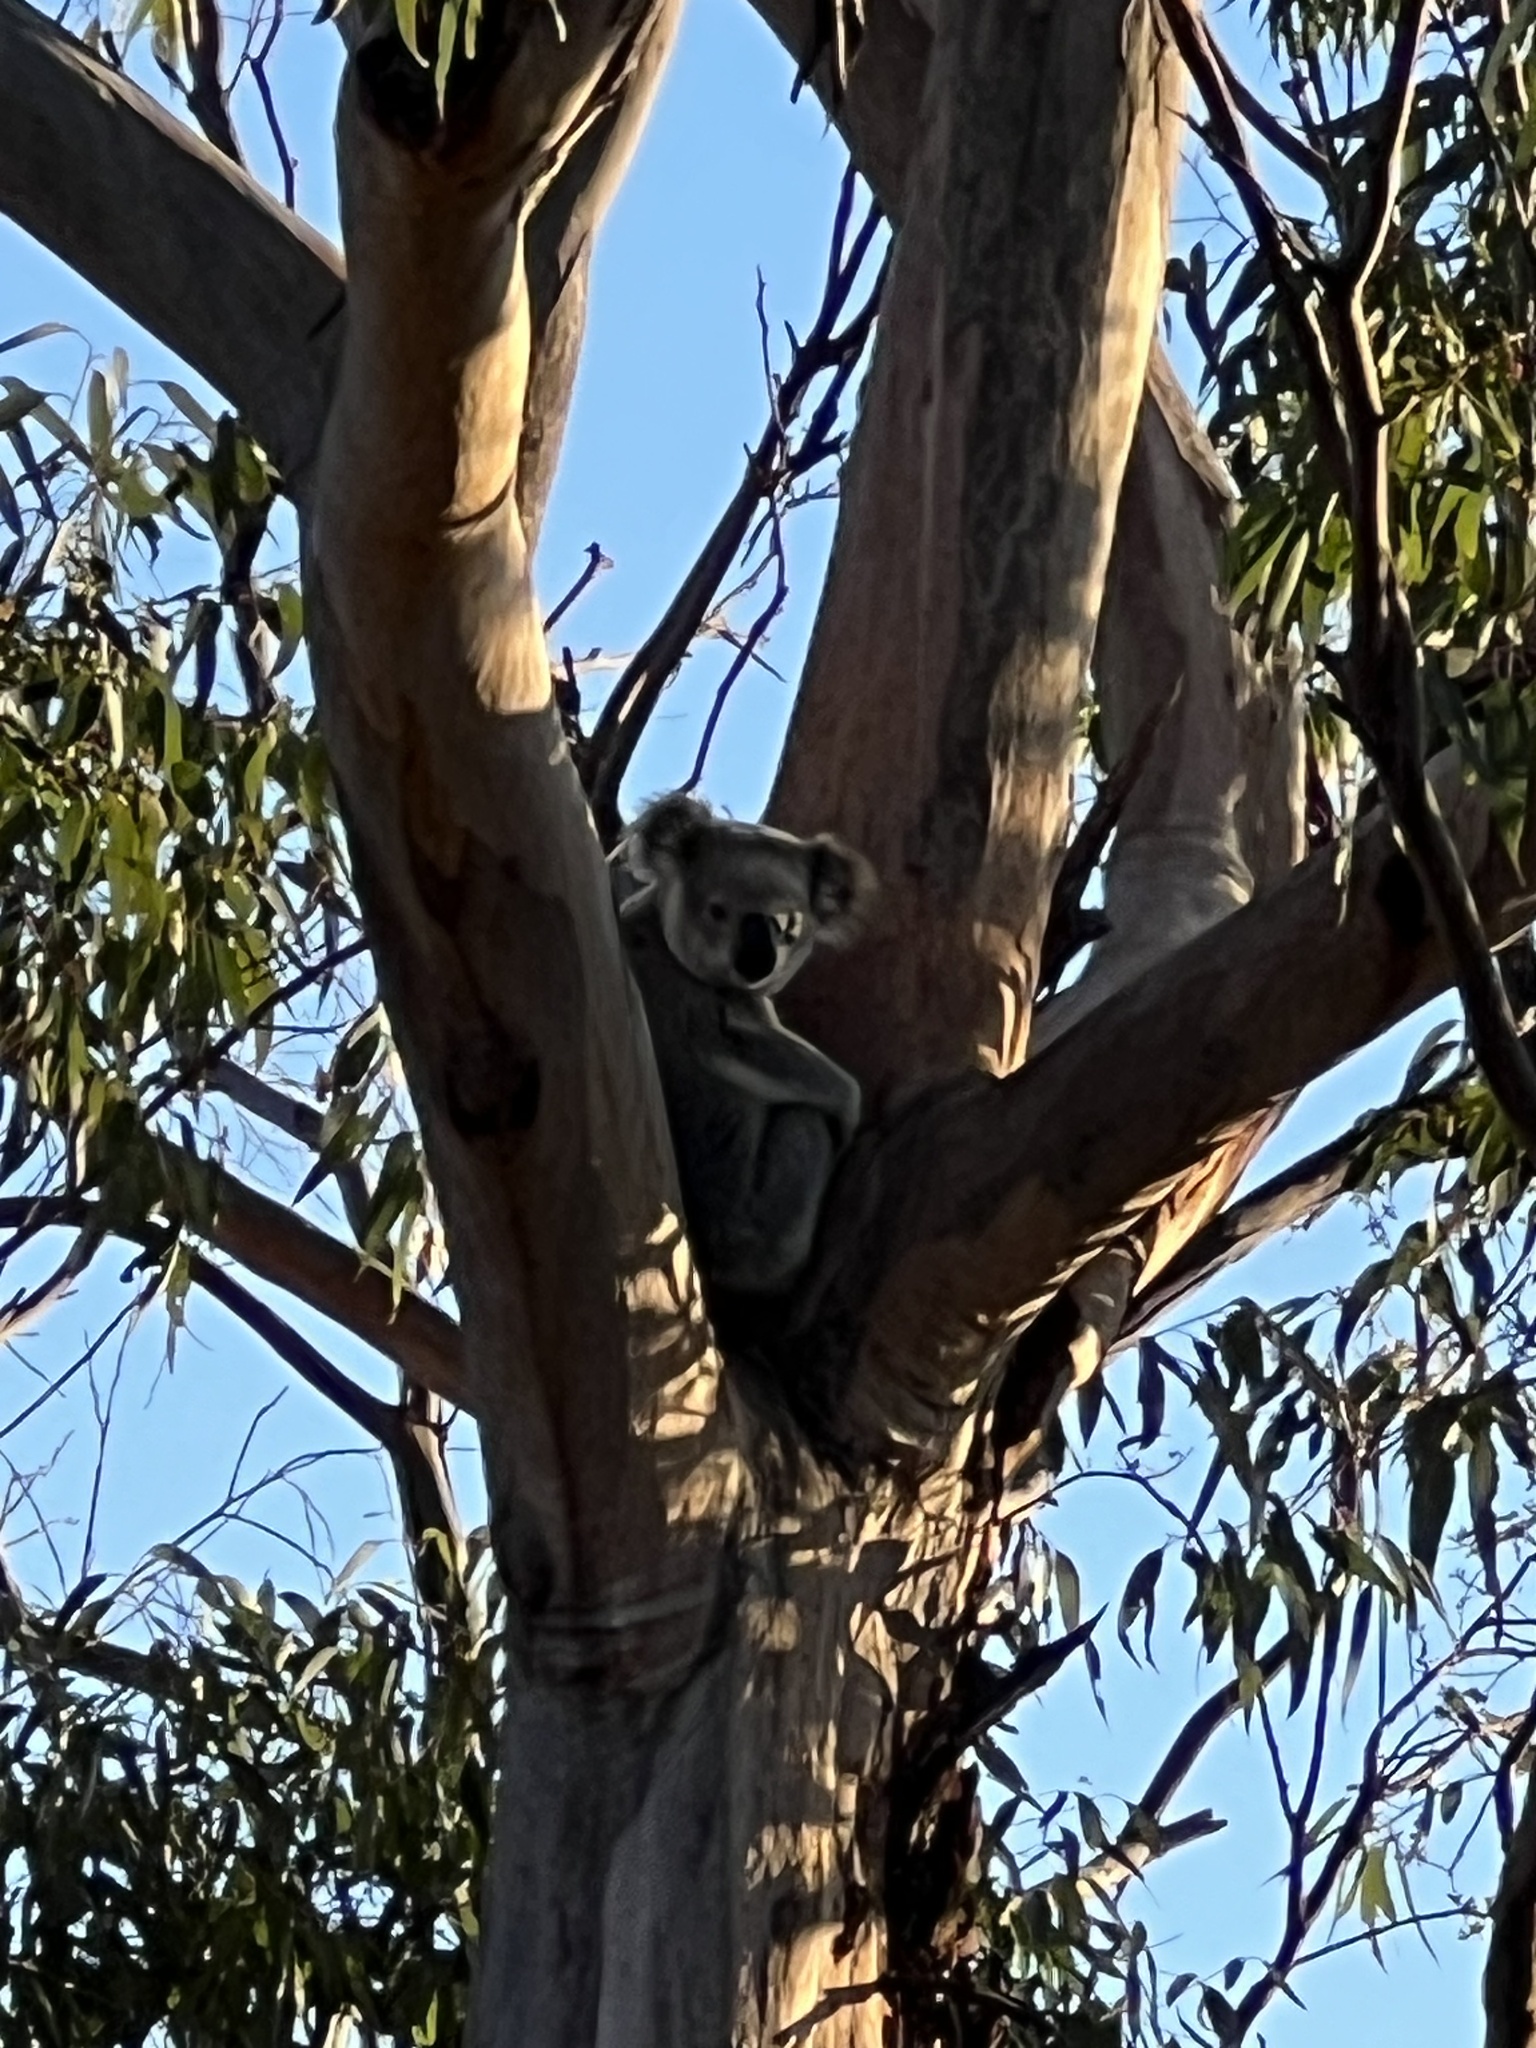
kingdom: Animalia
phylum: Chordata
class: Mammalia
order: Diprotodontia
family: Phascolarctidae
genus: Phascolarctos
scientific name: Phascolarctos cinereus
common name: Koala
